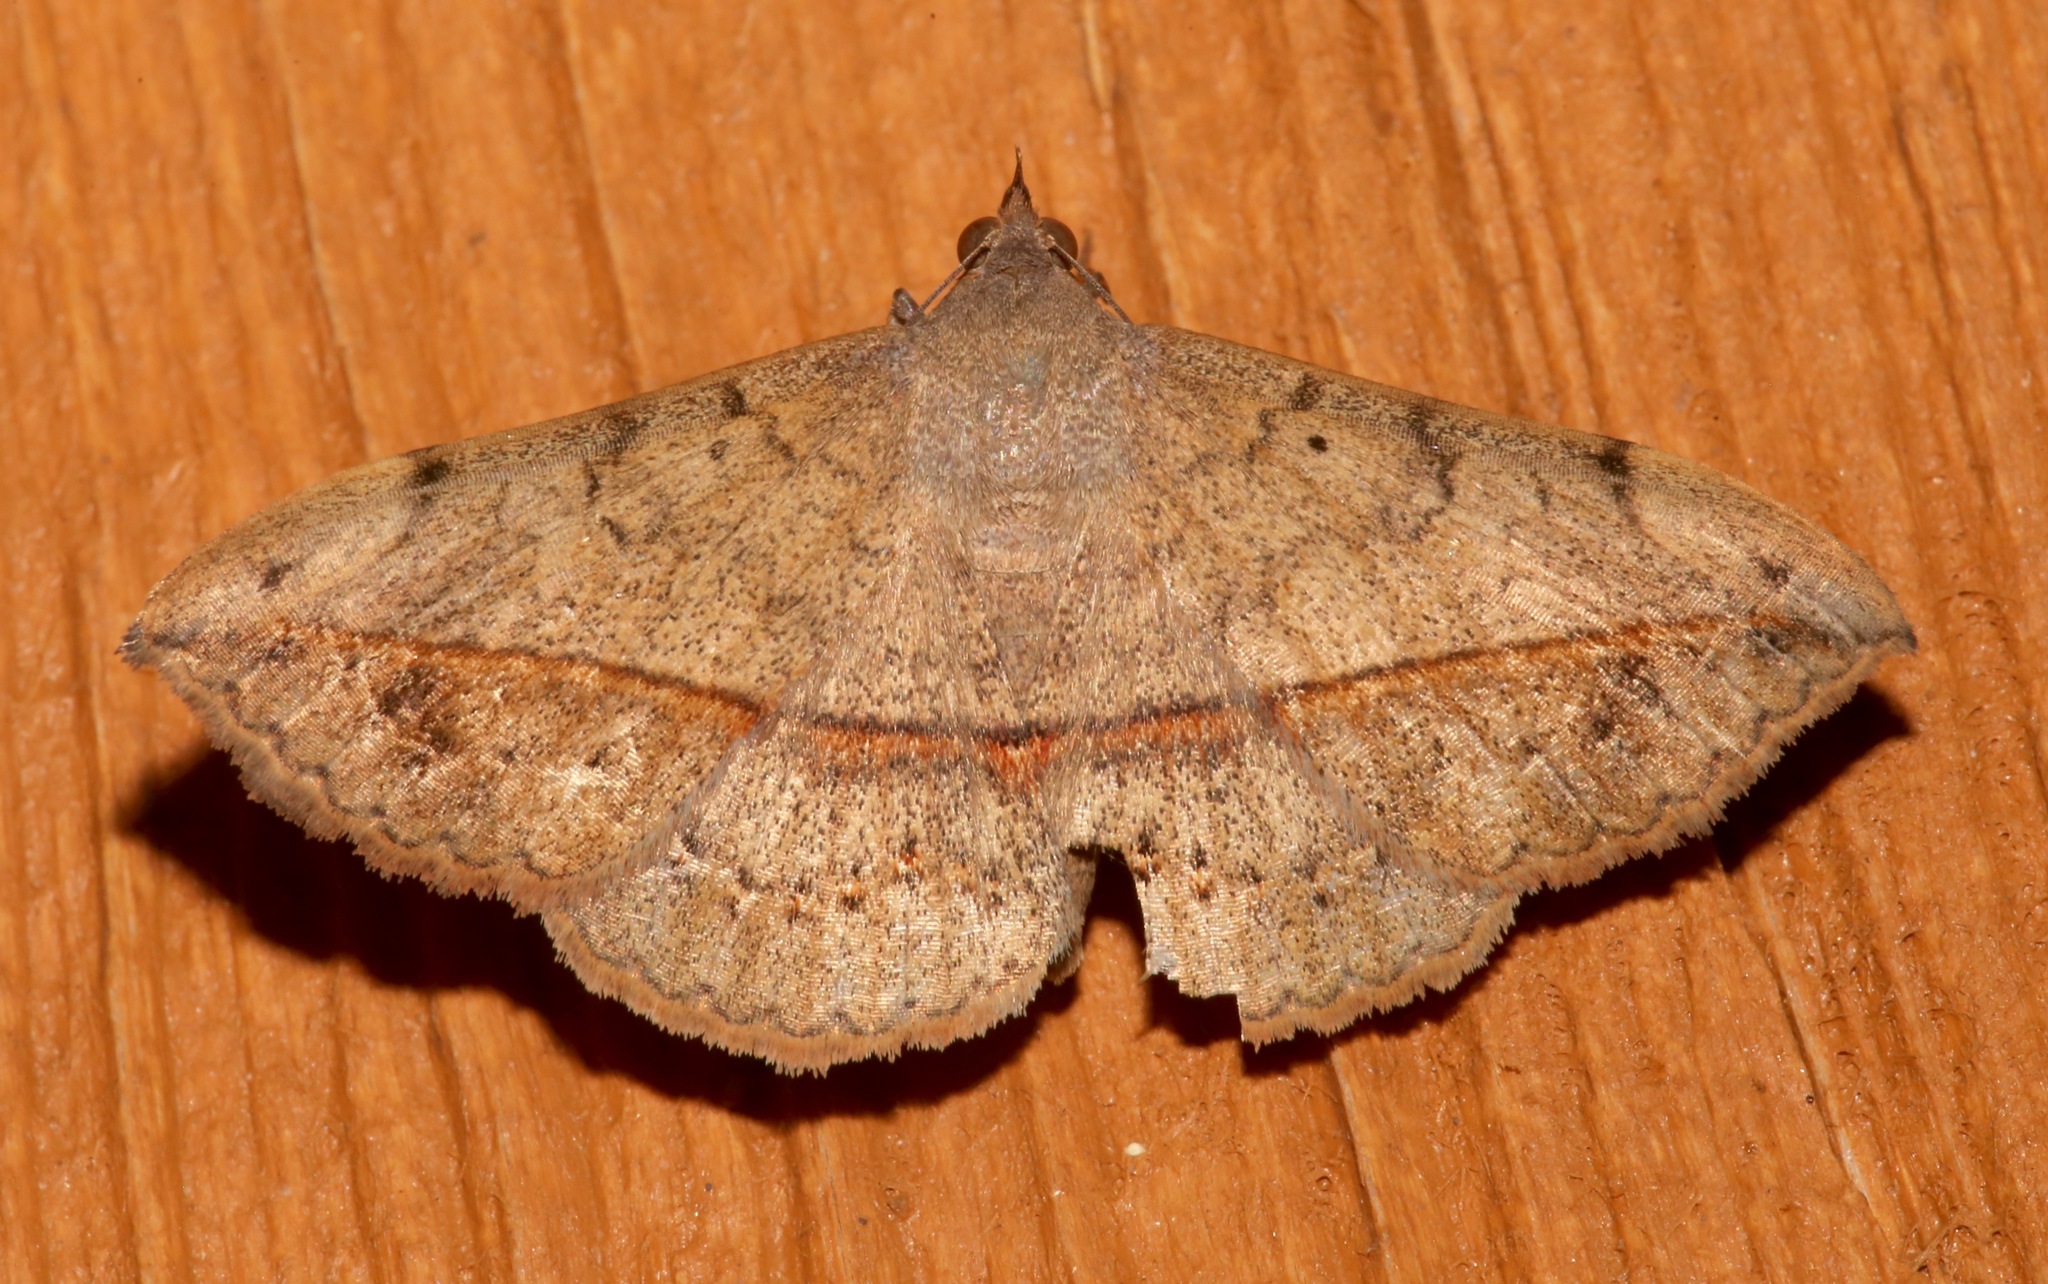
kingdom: Animalia
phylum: Arthropoda
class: Insecta
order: Lepidoptera
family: Erebidae
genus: Anticarsia
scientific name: Anticarsia gemmatalis
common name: Cutworm moth
